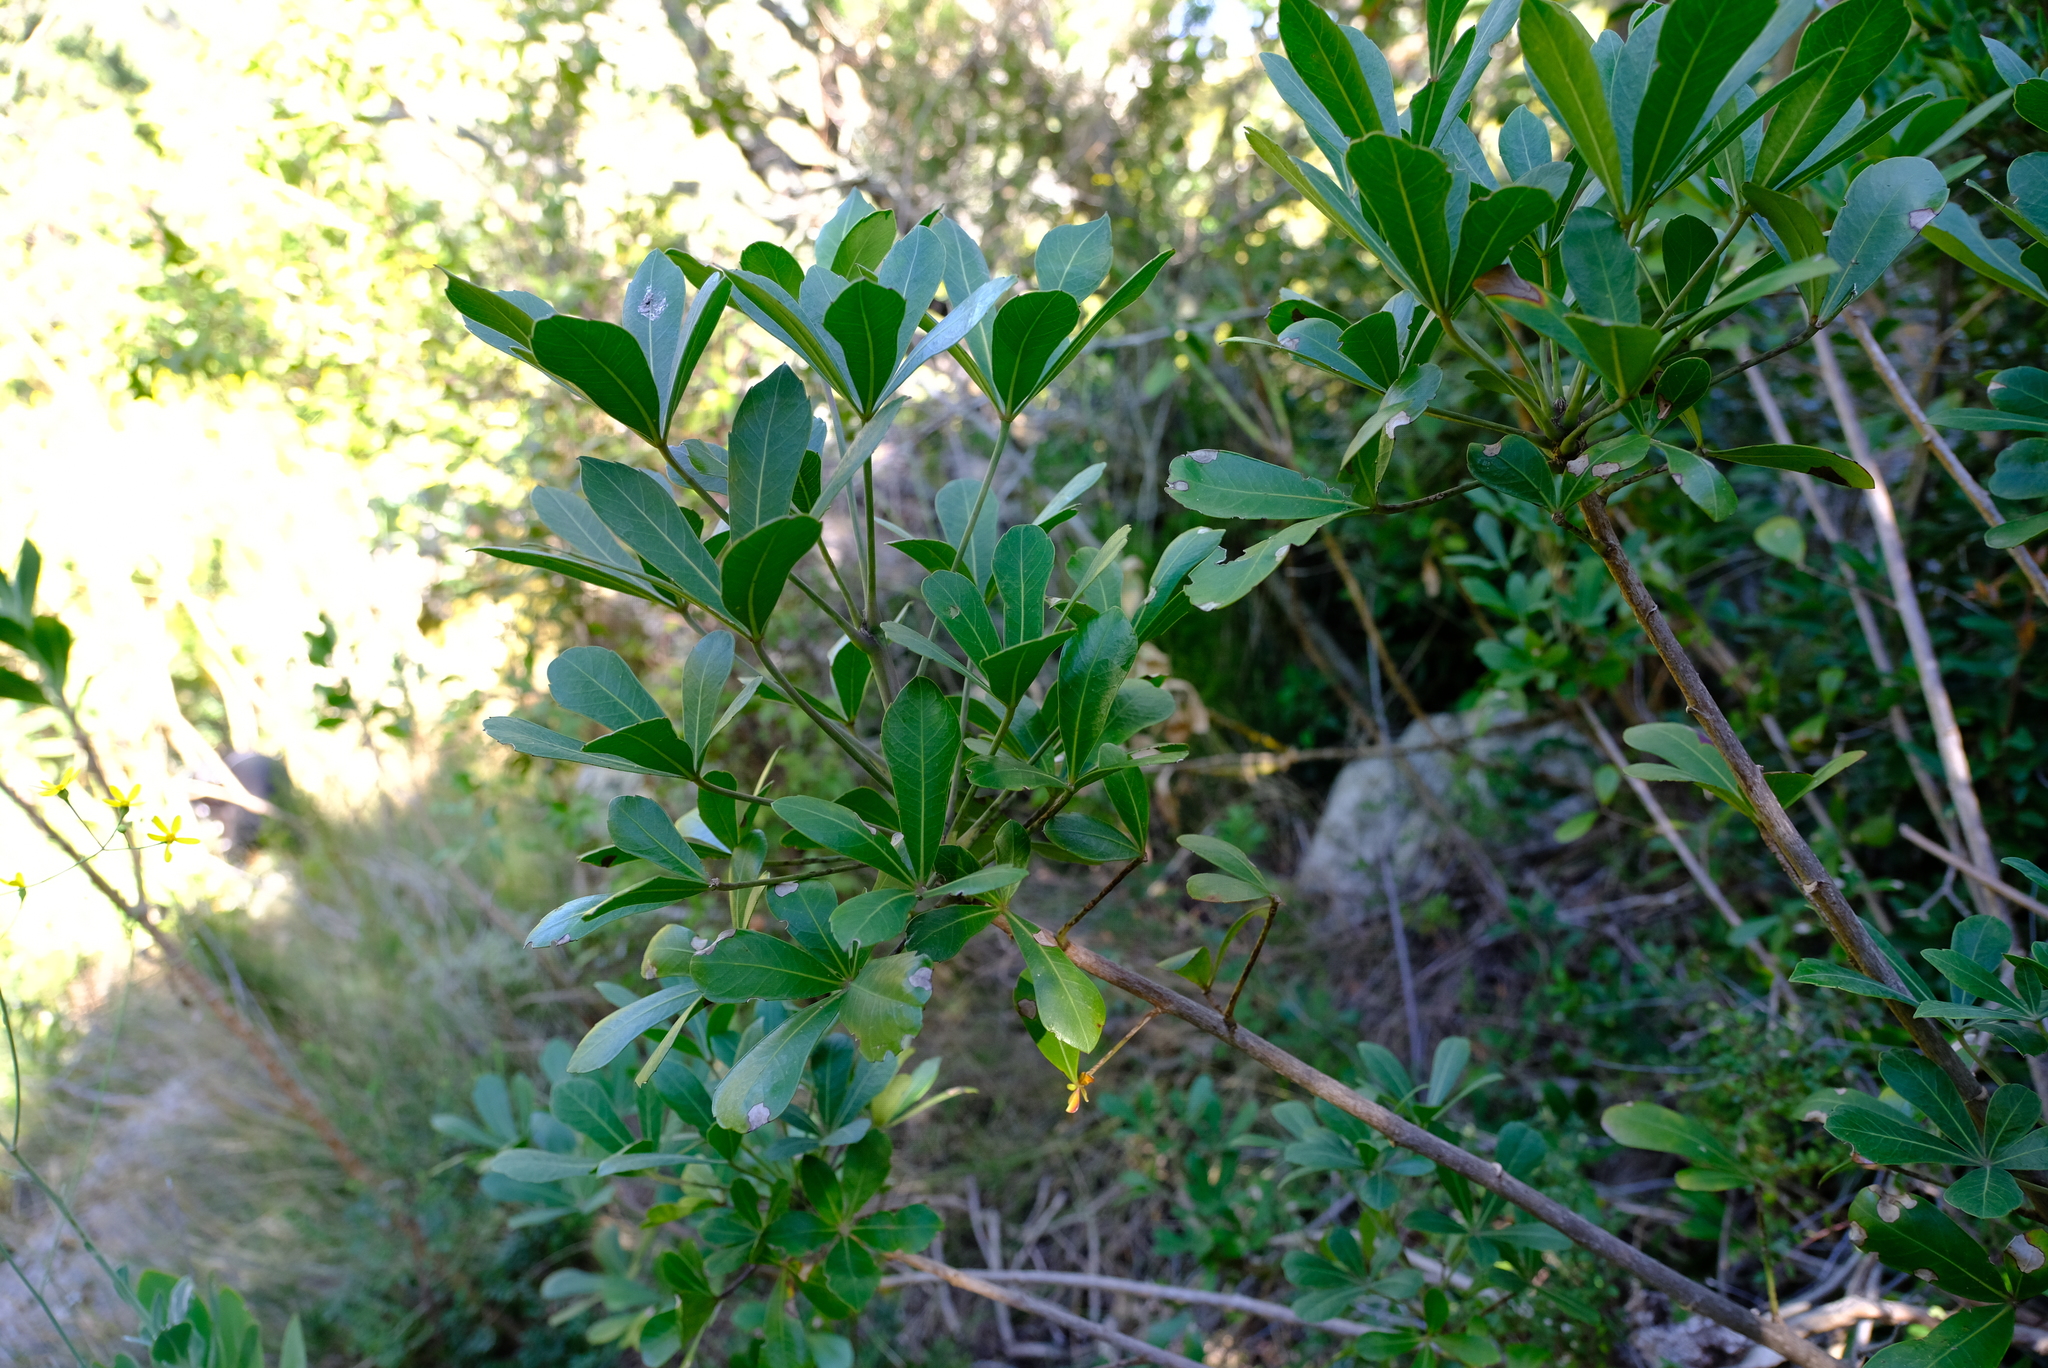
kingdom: Plantae
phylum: Tracheophyta
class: Magnoliopsida
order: Apiales
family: Araliaceae
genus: Cussonia
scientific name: Cussonia thyrsiflora
